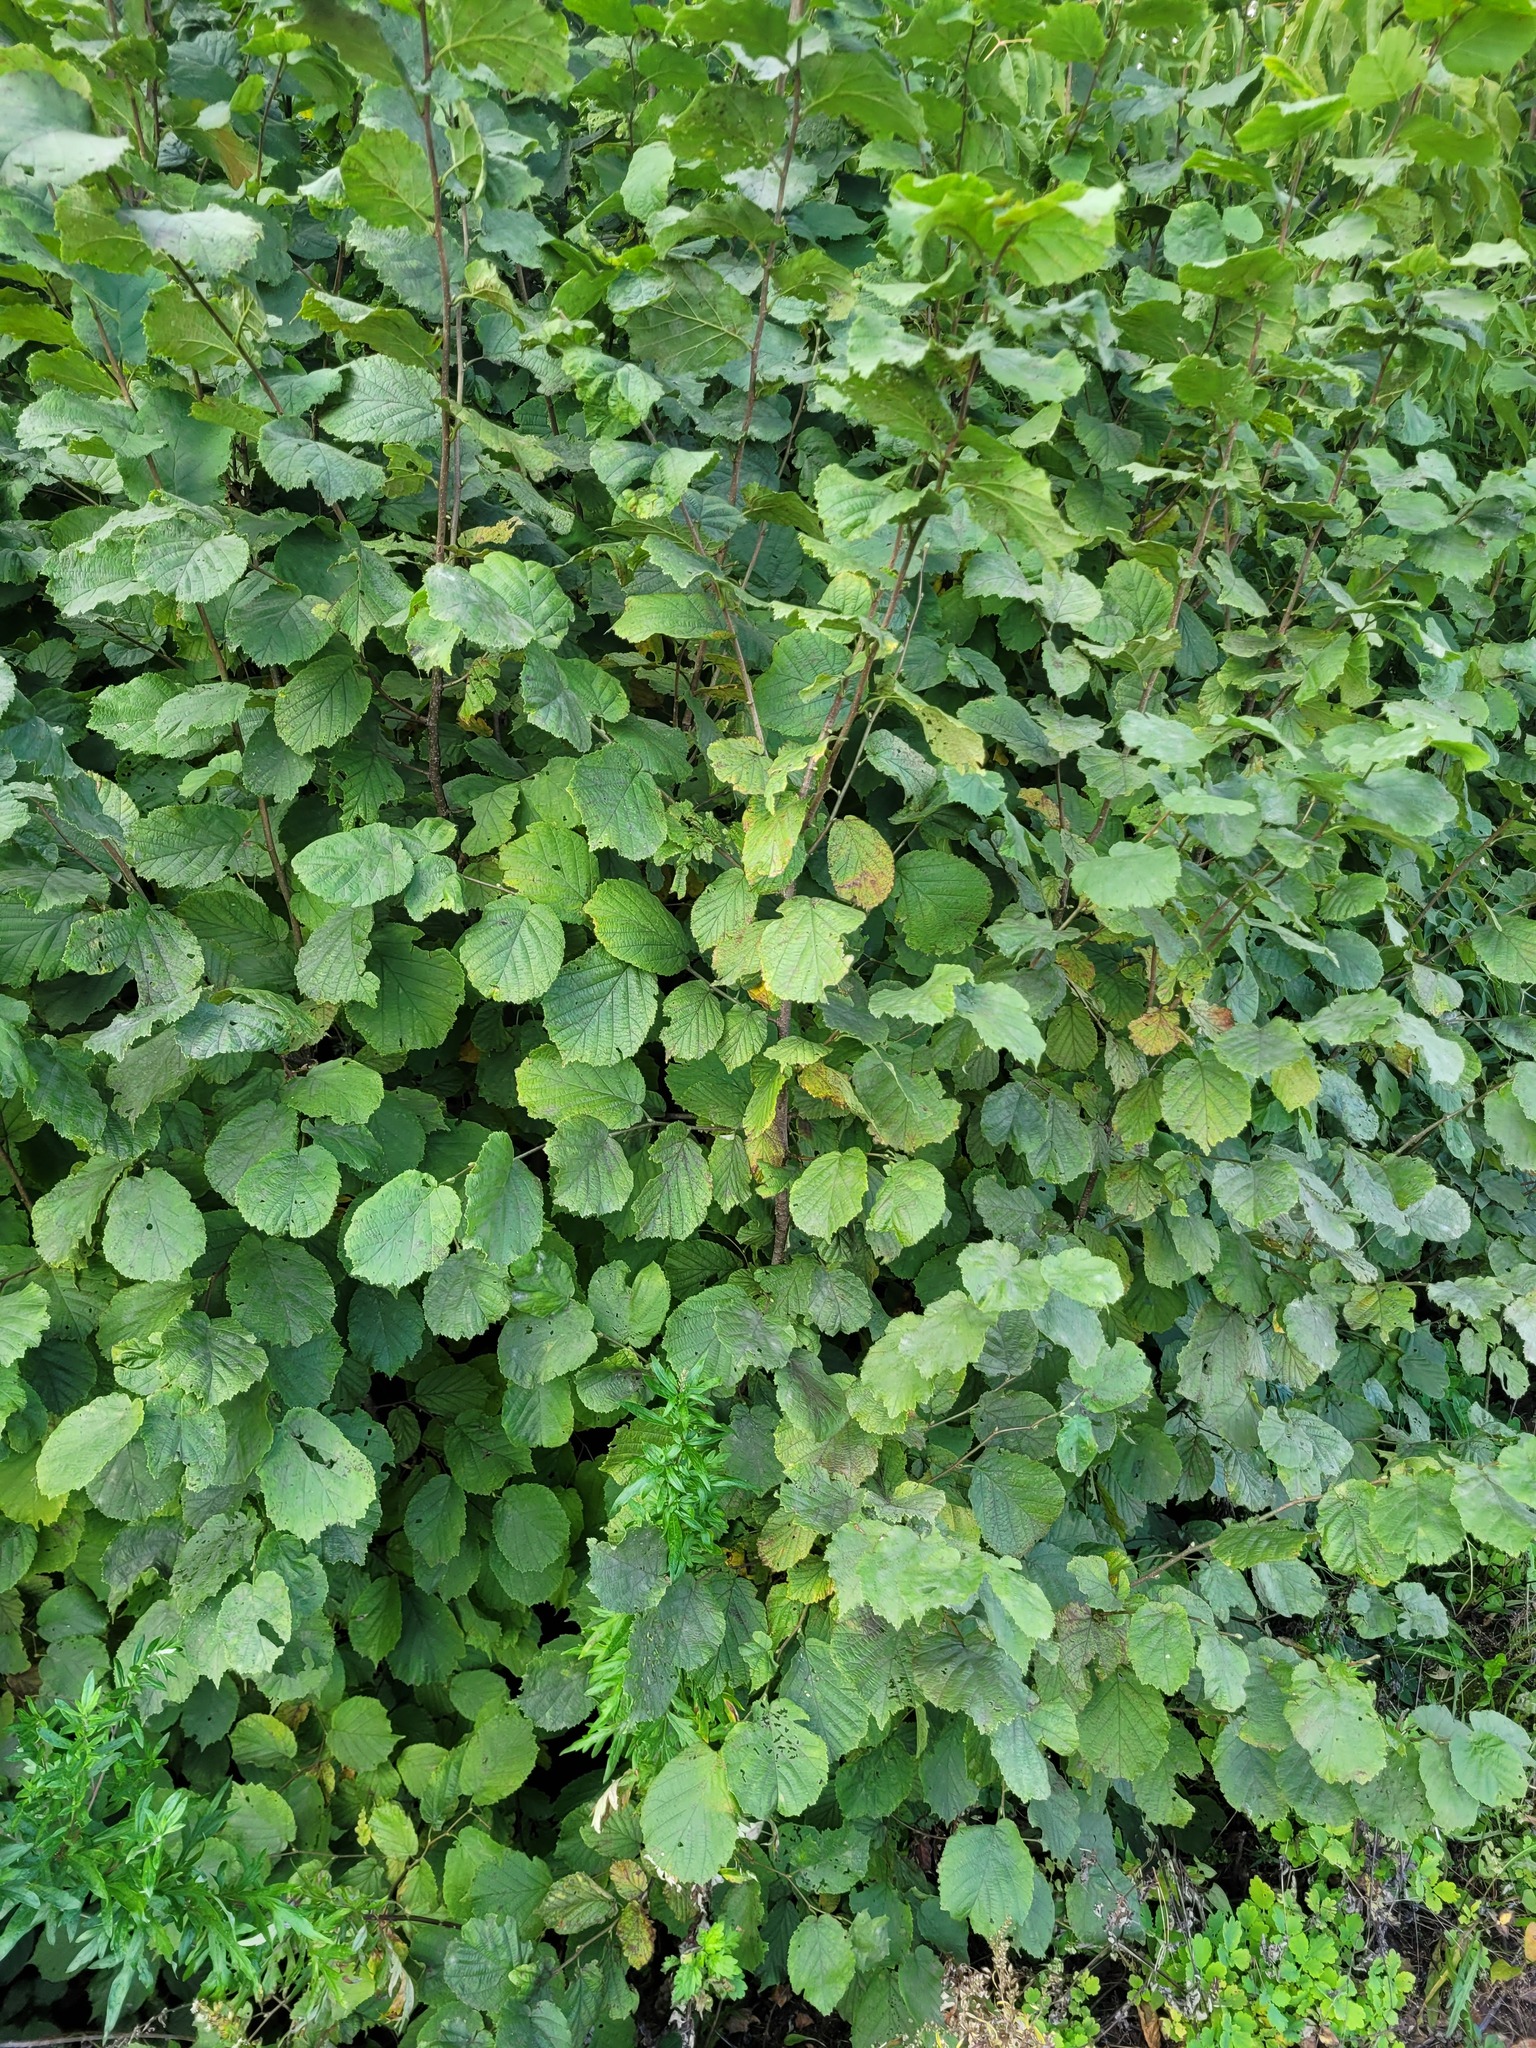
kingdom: Plantae
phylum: Tracheophyta
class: Magnoliopsida
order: Fagales
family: Betulaceae
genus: Corylus
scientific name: Corylus avellana
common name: European hazel
